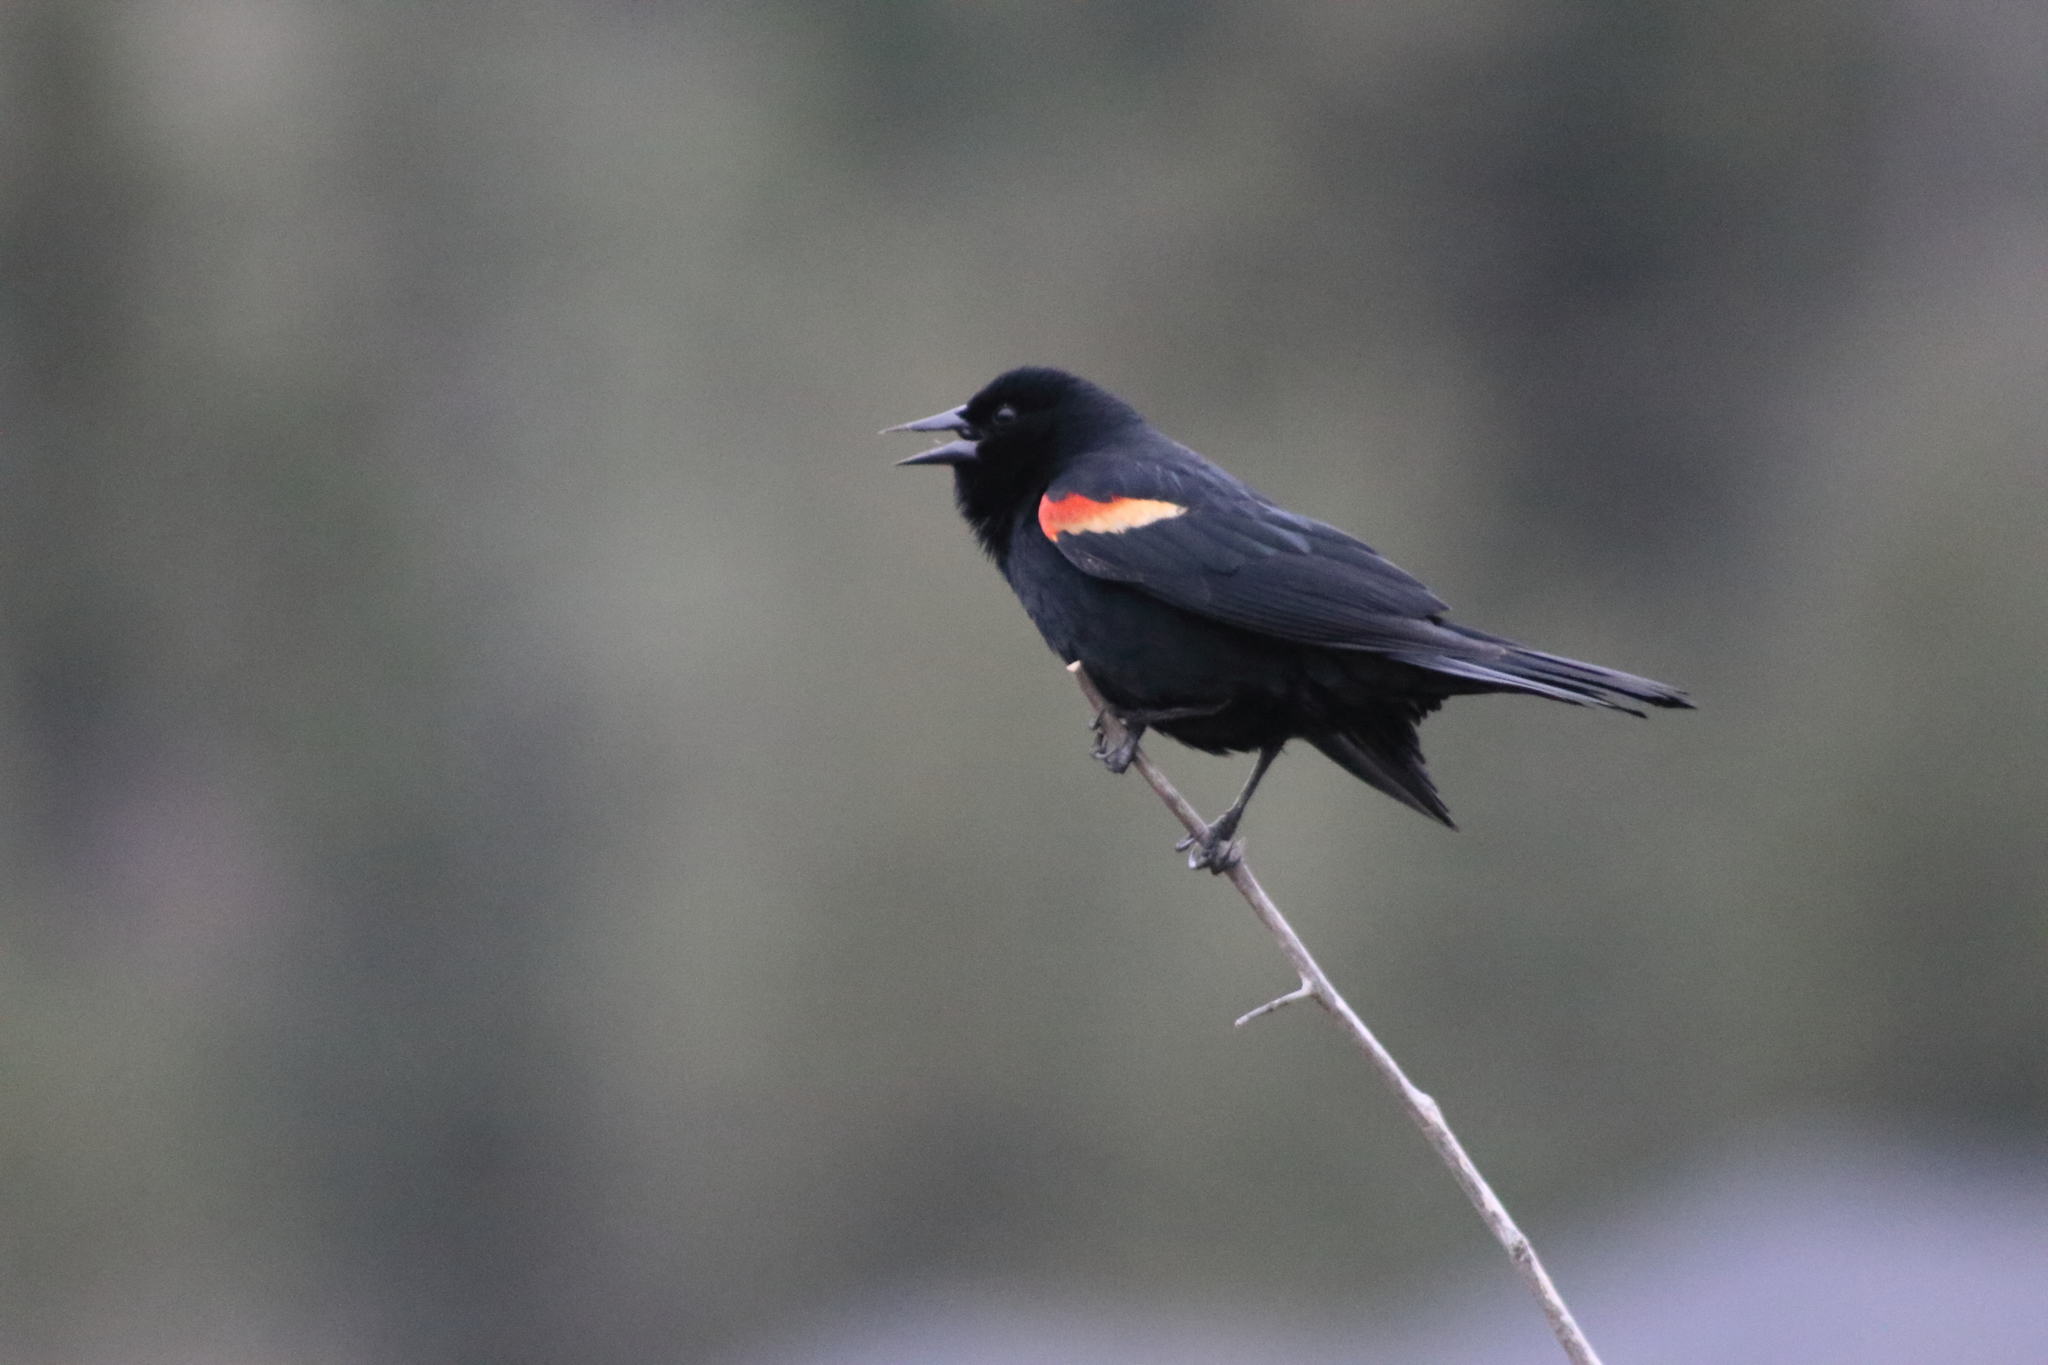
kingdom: Animalia
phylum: Chordata
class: Aves
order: Passeriformes
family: Icteridae
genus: Agelaius
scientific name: Agelaius phoeniceus
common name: Red-winged blackbird
